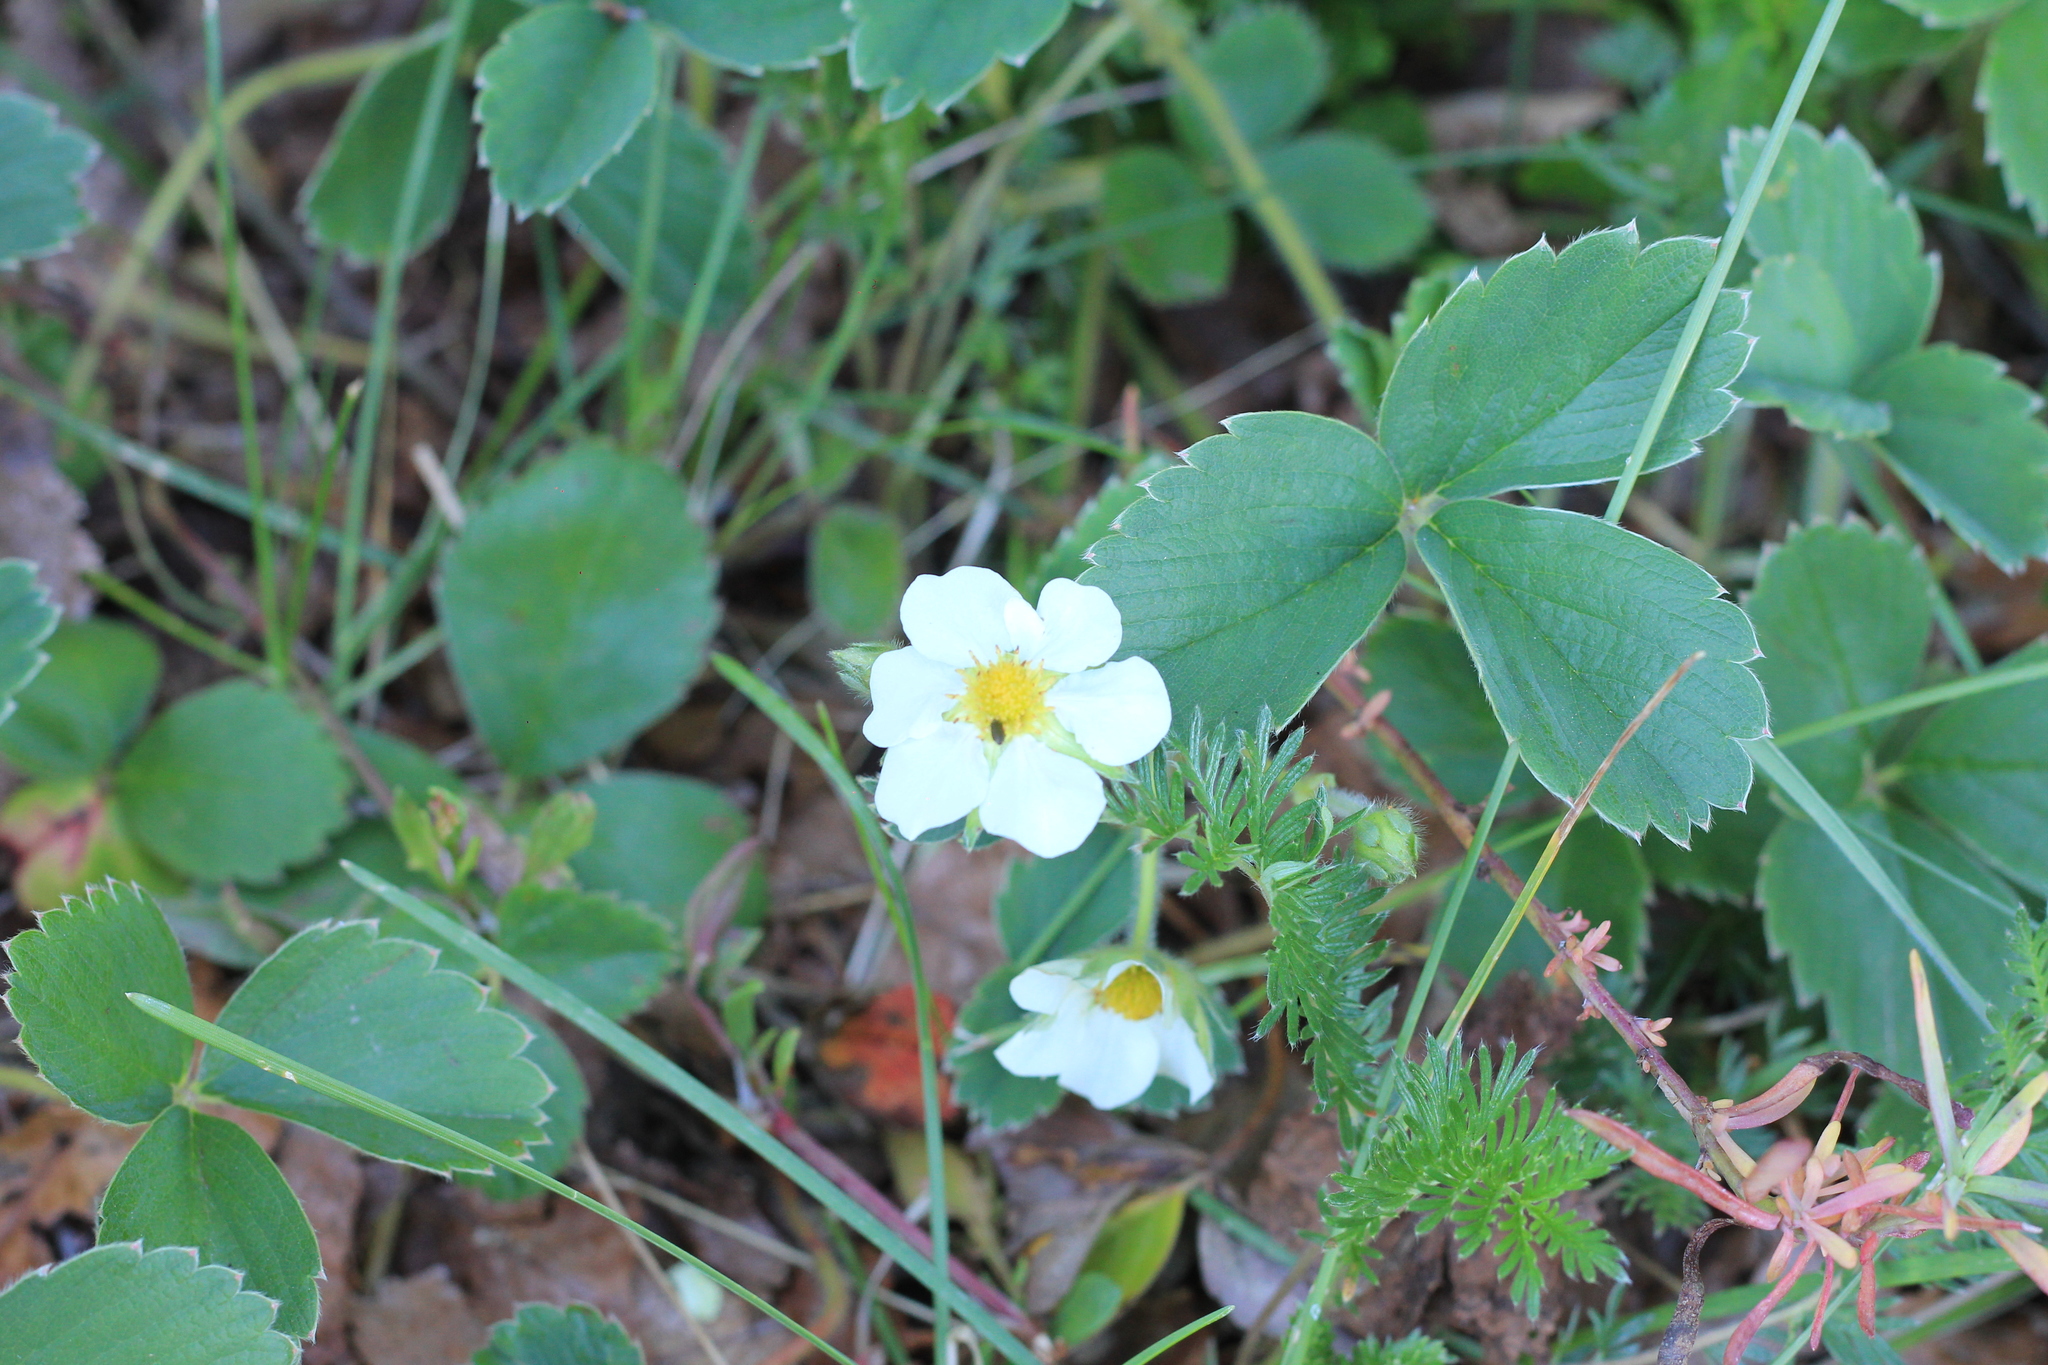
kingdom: Plantae
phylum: Tracheophyta
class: Magnoliopsida
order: Rosales
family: Rosaceae
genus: Fragaria
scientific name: Fragaria chiloensis
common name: Beach strawberry
